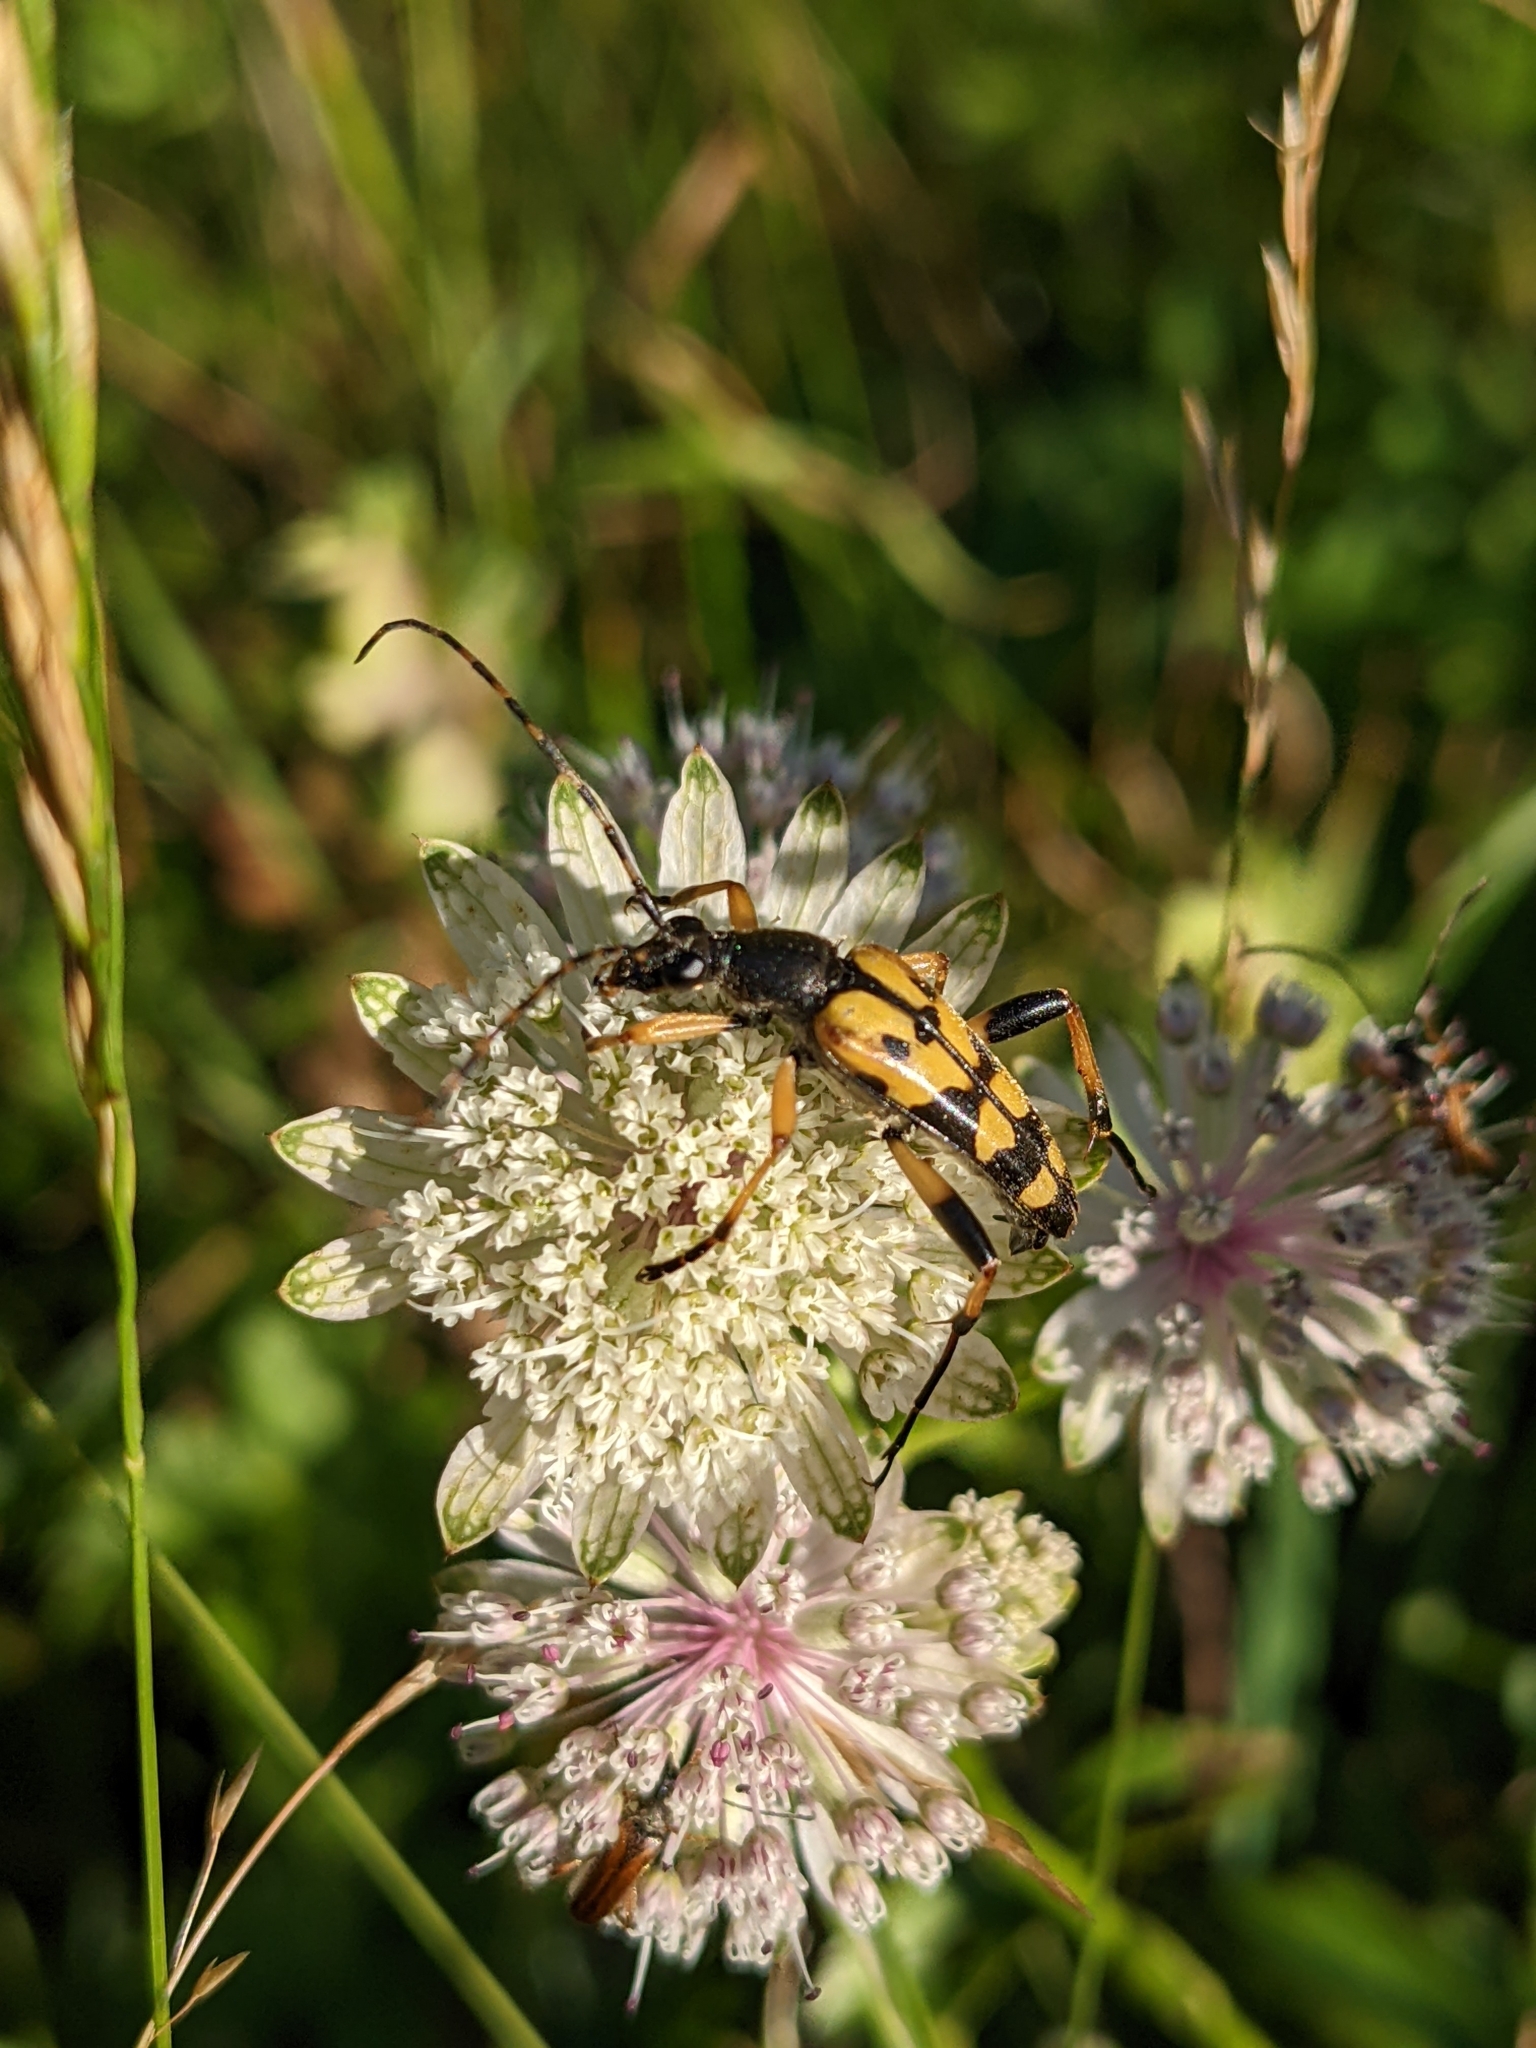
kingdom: Animalia
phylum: Arthropoda
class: Insecta
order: Coleoptera
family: Cerambycidae
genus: Rutpela
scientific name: Rutpela maculata
